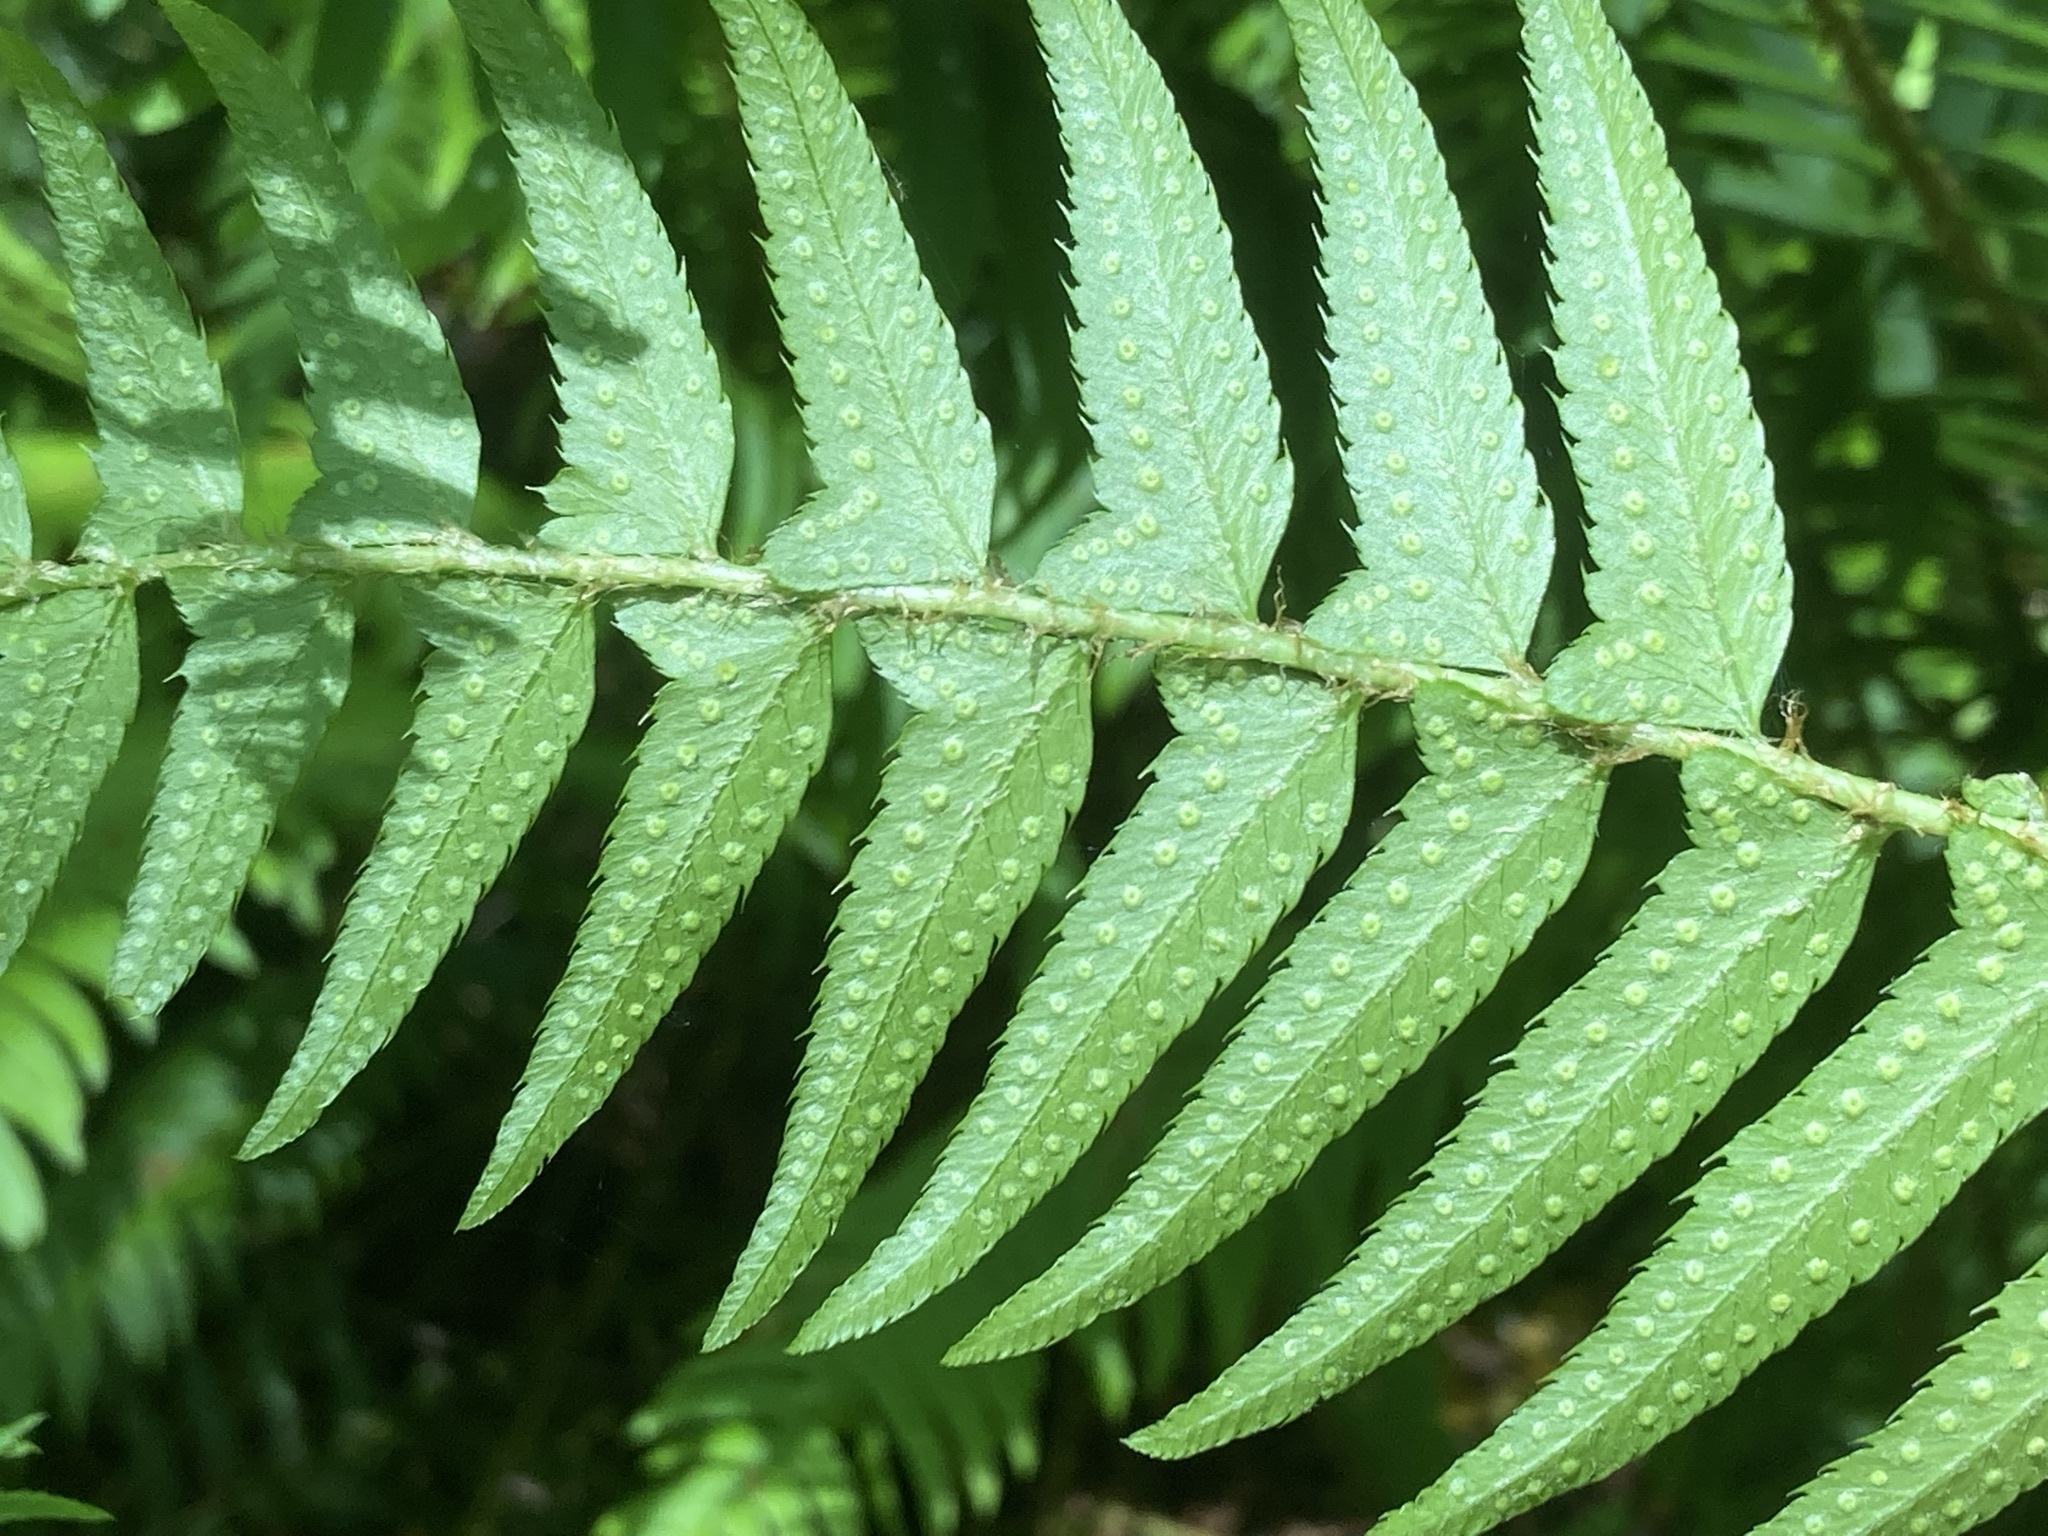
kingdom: Plantae
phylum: Tracheophyta
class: Polypodiopsida
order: Polypodiales
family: Dryopteridaceae
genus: Polystichum
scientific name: Polystichum munitum
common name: Western sword-fern
